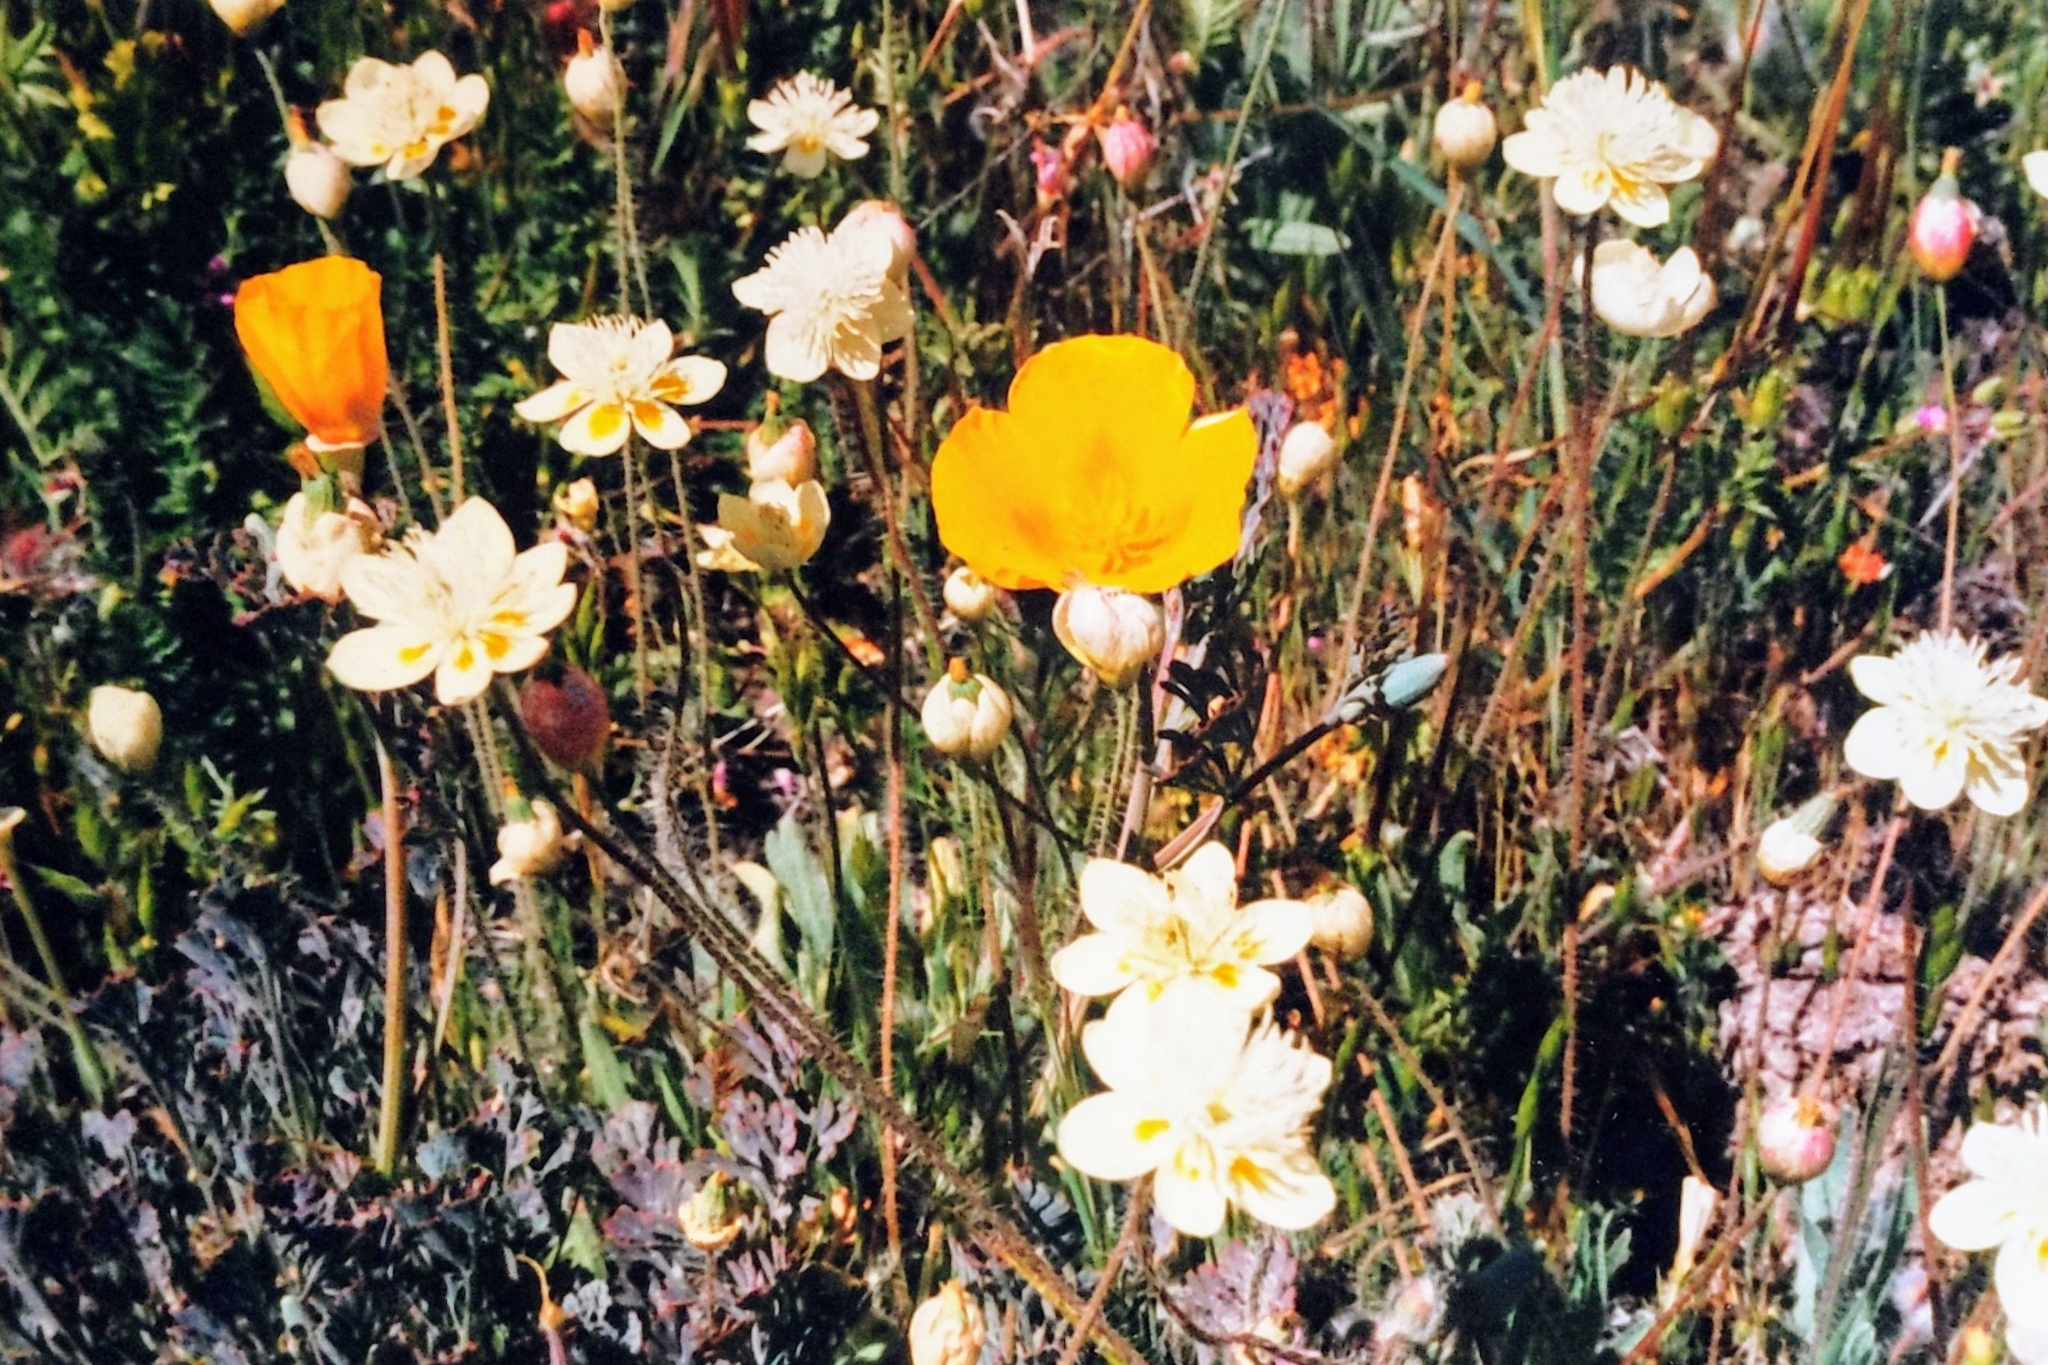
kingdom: Plantae
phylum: Tracheophyta
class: Magnoliopsida
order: Ranunculales
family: Papaveraceae
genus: Platystemon
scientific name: Platystemon californicus
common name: Cream-cups
